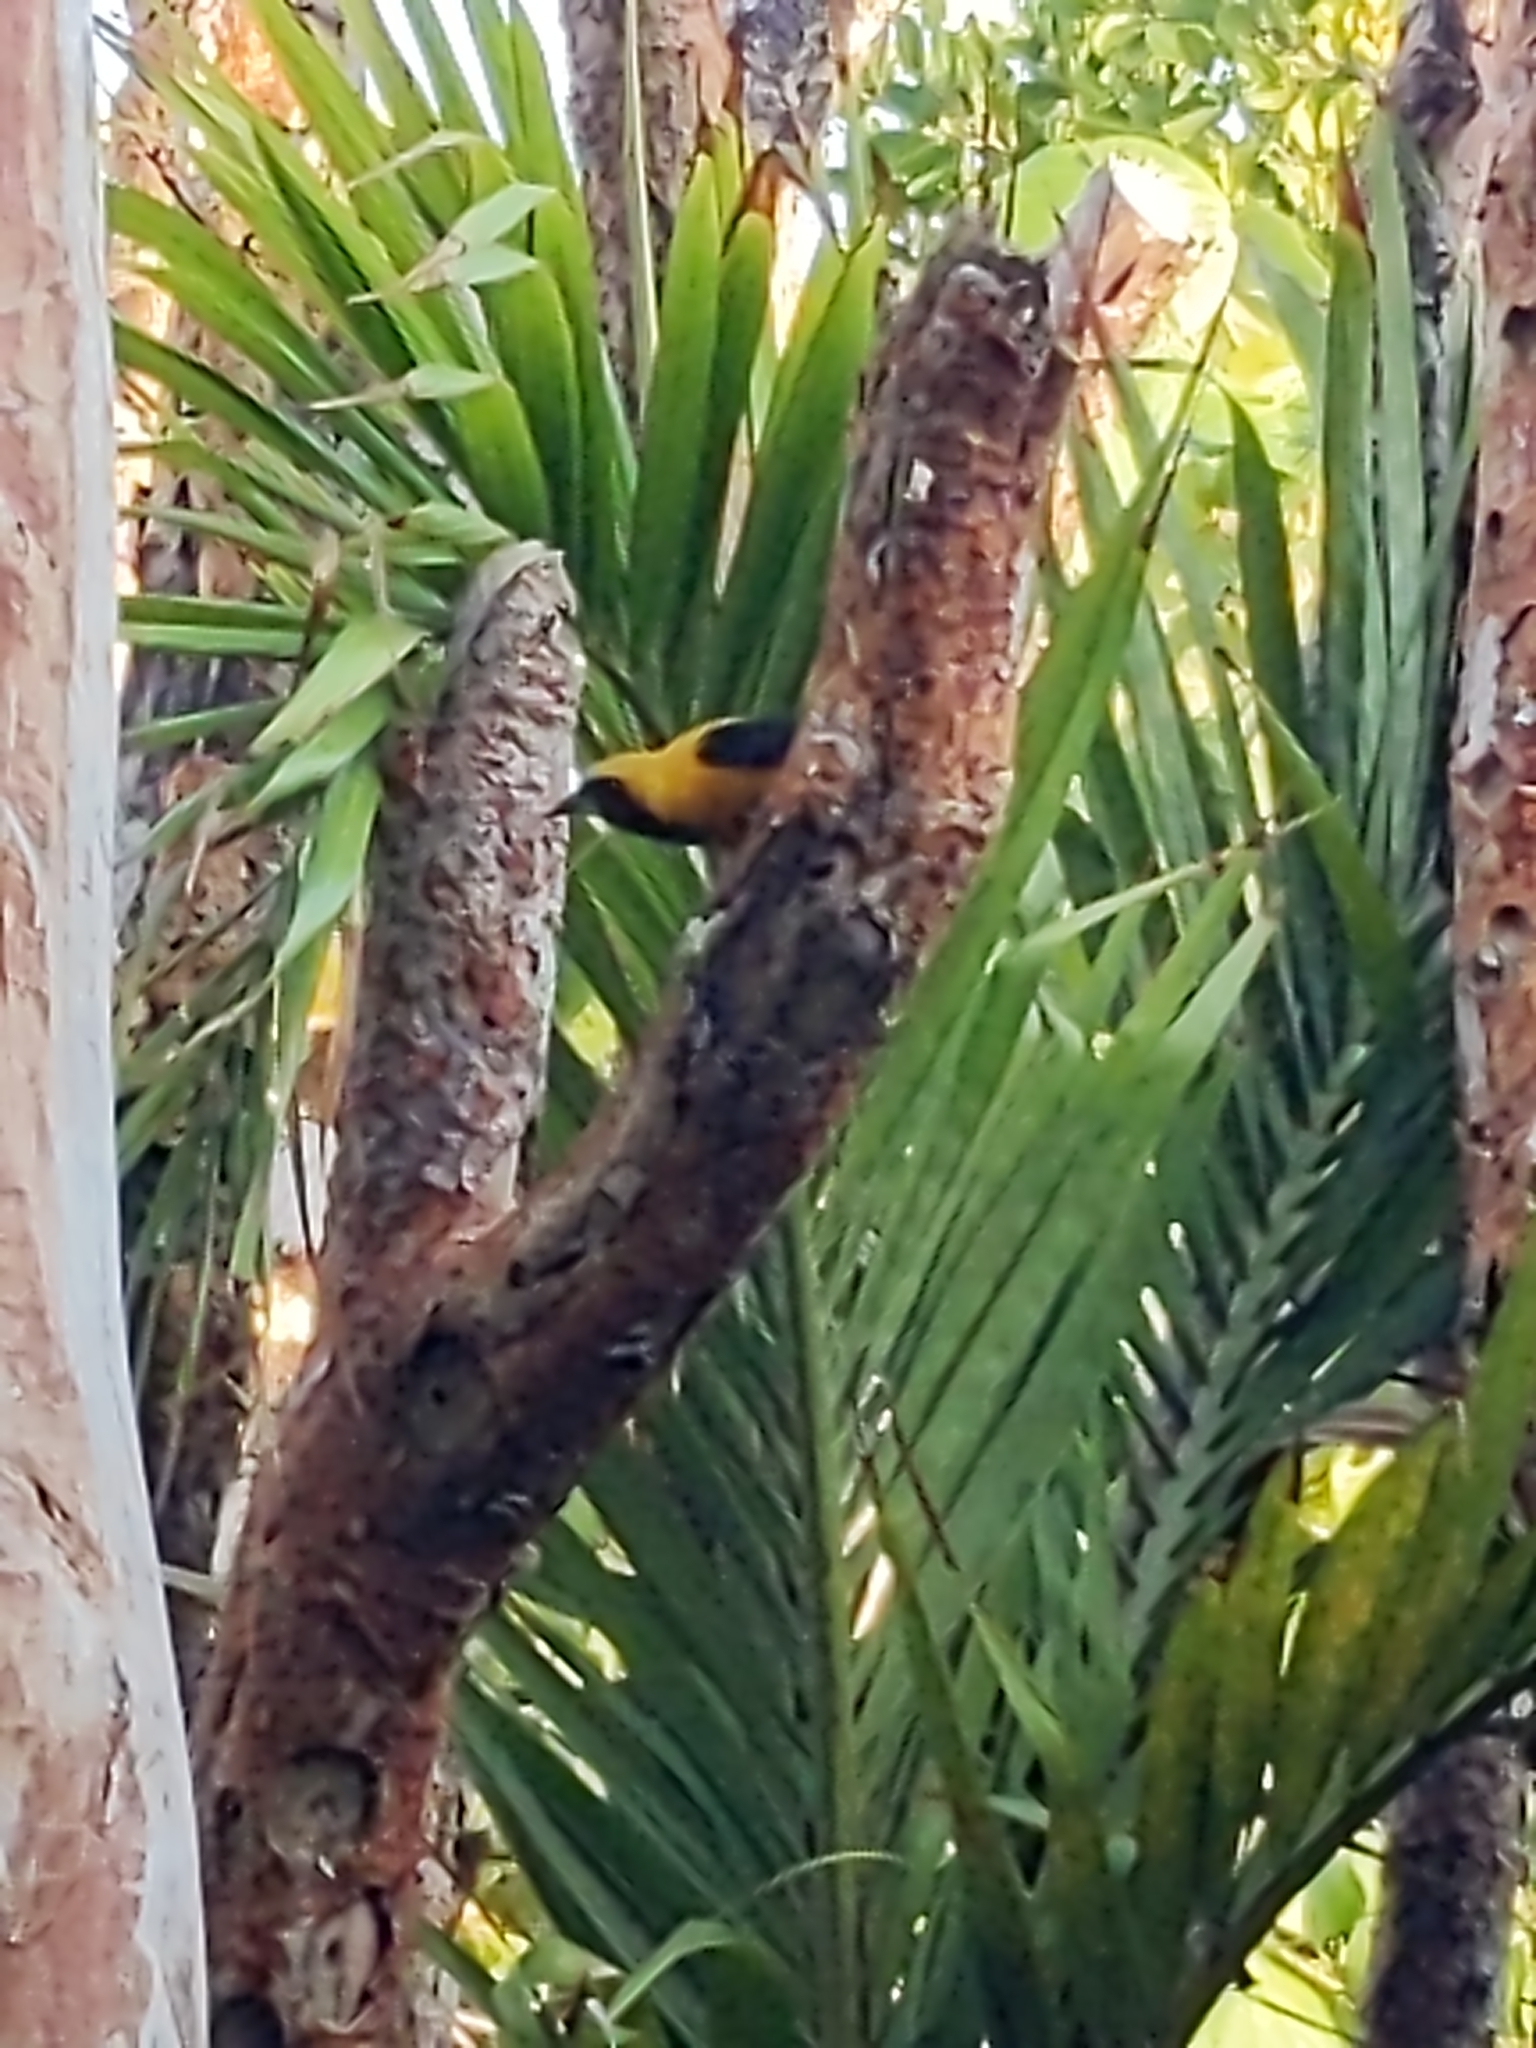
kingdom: Animalia
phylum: Chordata
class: Aves
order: Passeriformes
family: Icteridae
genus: Icterus
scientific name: Icterus chrysater
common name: Yellow-backed oriole
